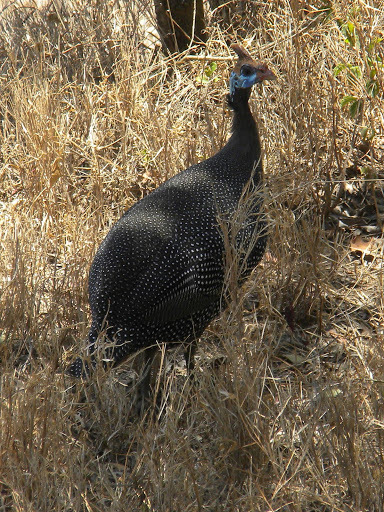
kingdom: Animalia
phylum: Chordata
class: Aves
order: Galliformes
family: Numididae
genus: Numida
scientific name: Numida meleagris
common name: Helmeted guineafowl
